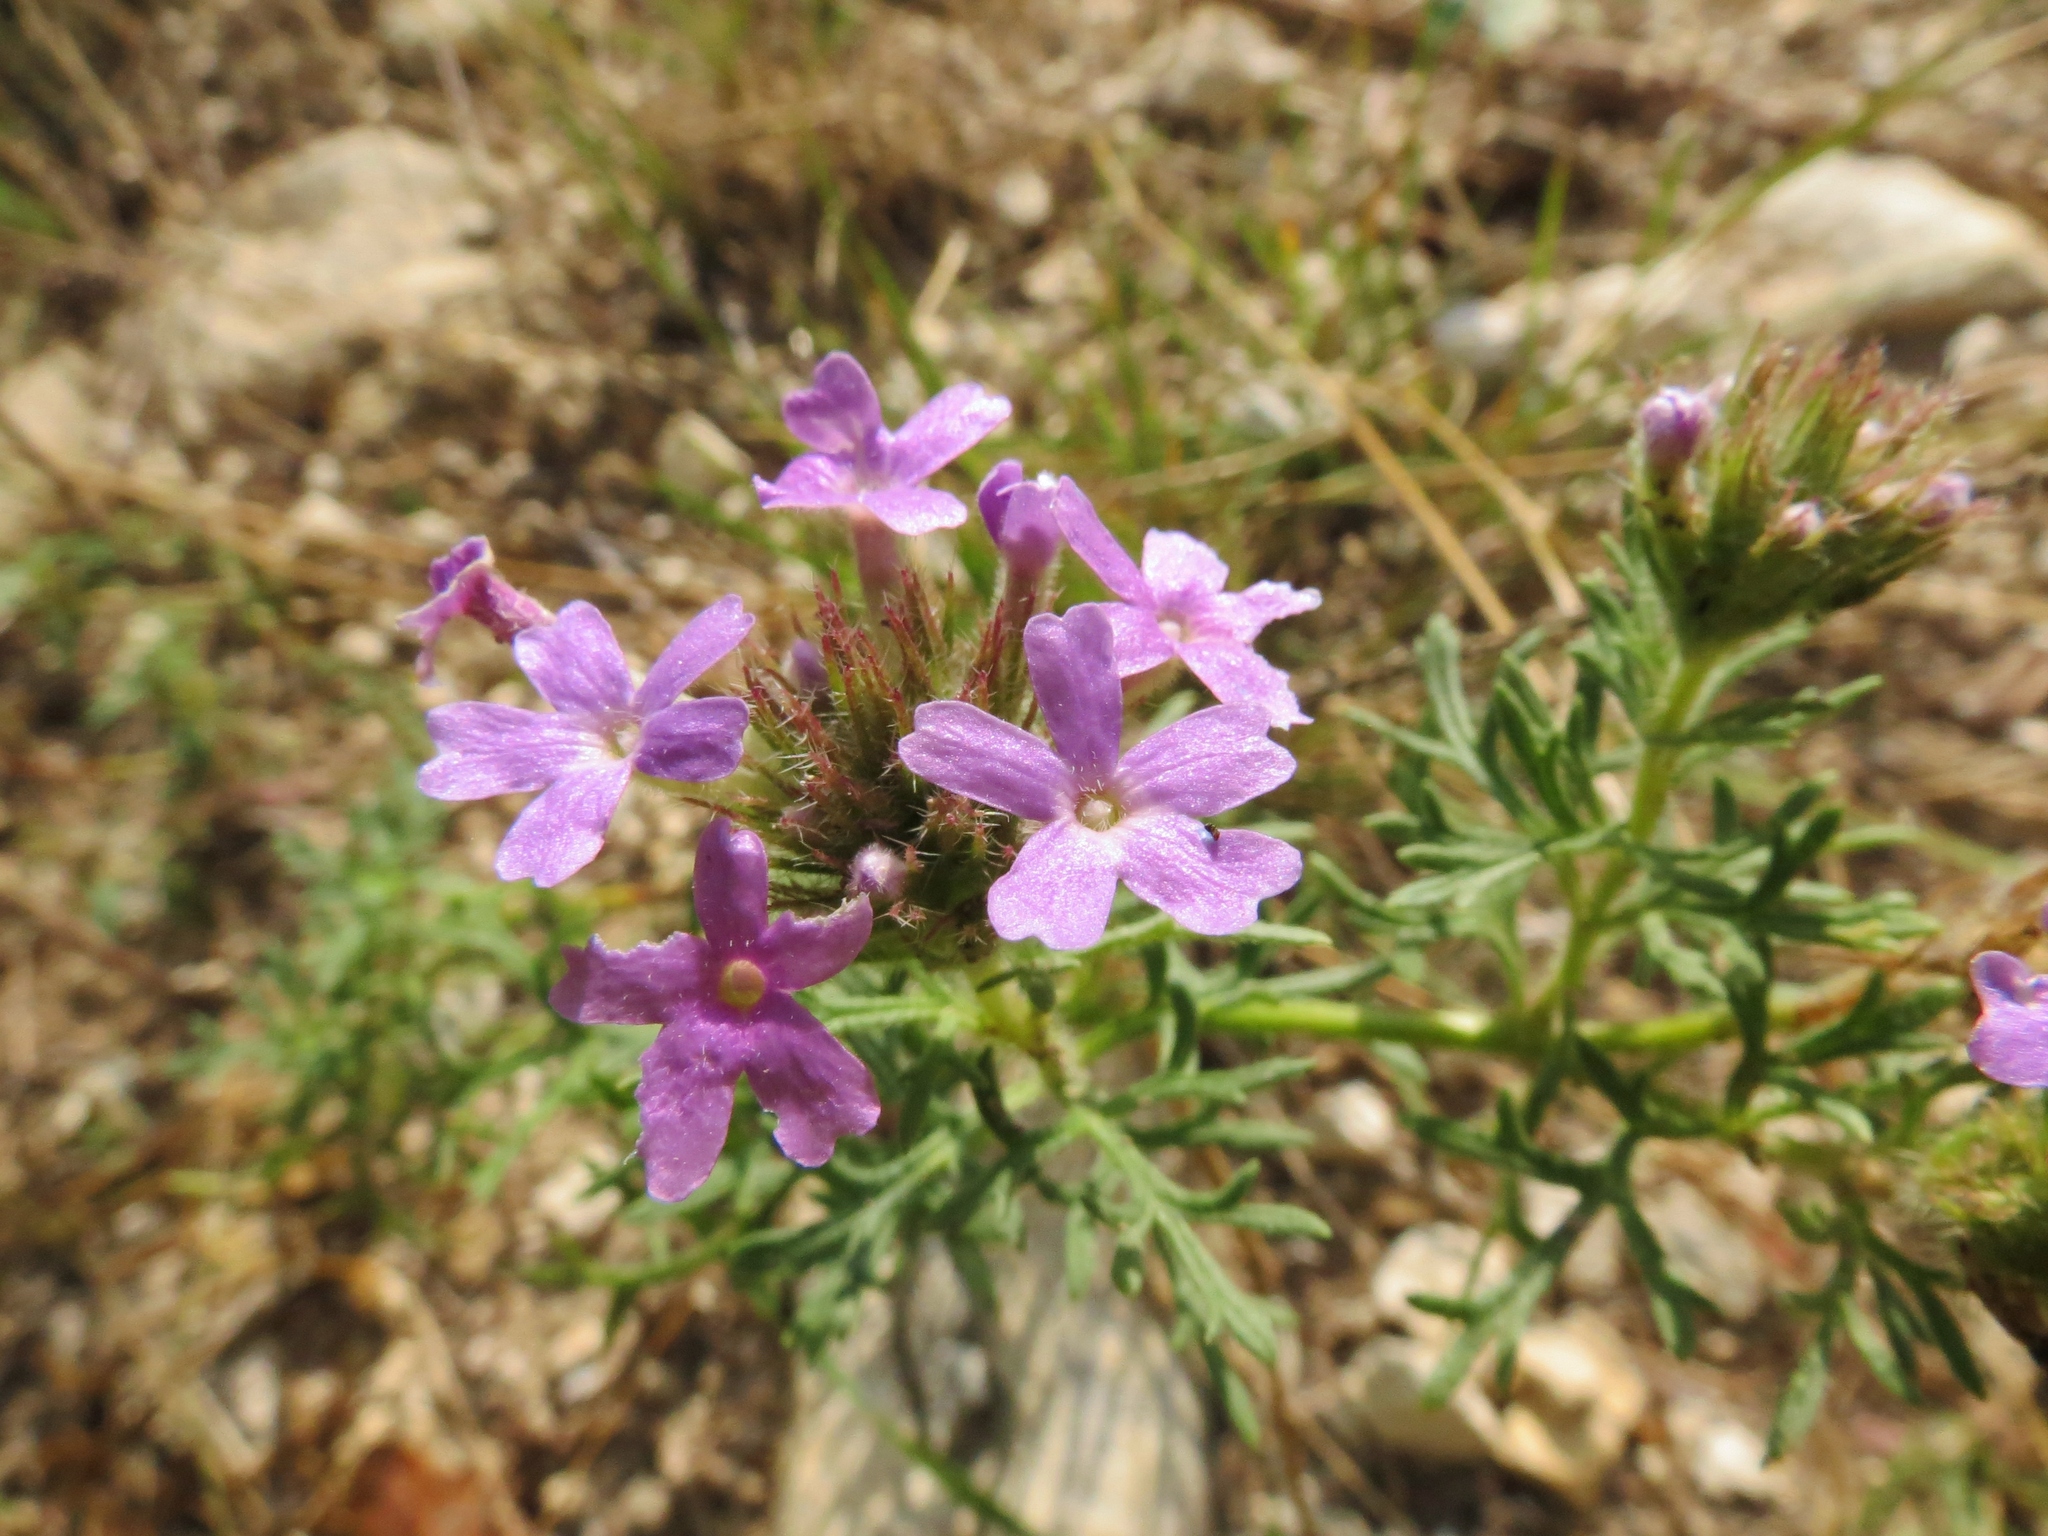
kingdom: Plantae
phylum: Tracheophyta
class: Magnoliopsida
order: Lamiales
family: Verbenaceae
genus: Verbena
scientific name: Verbena bipinnatifida
